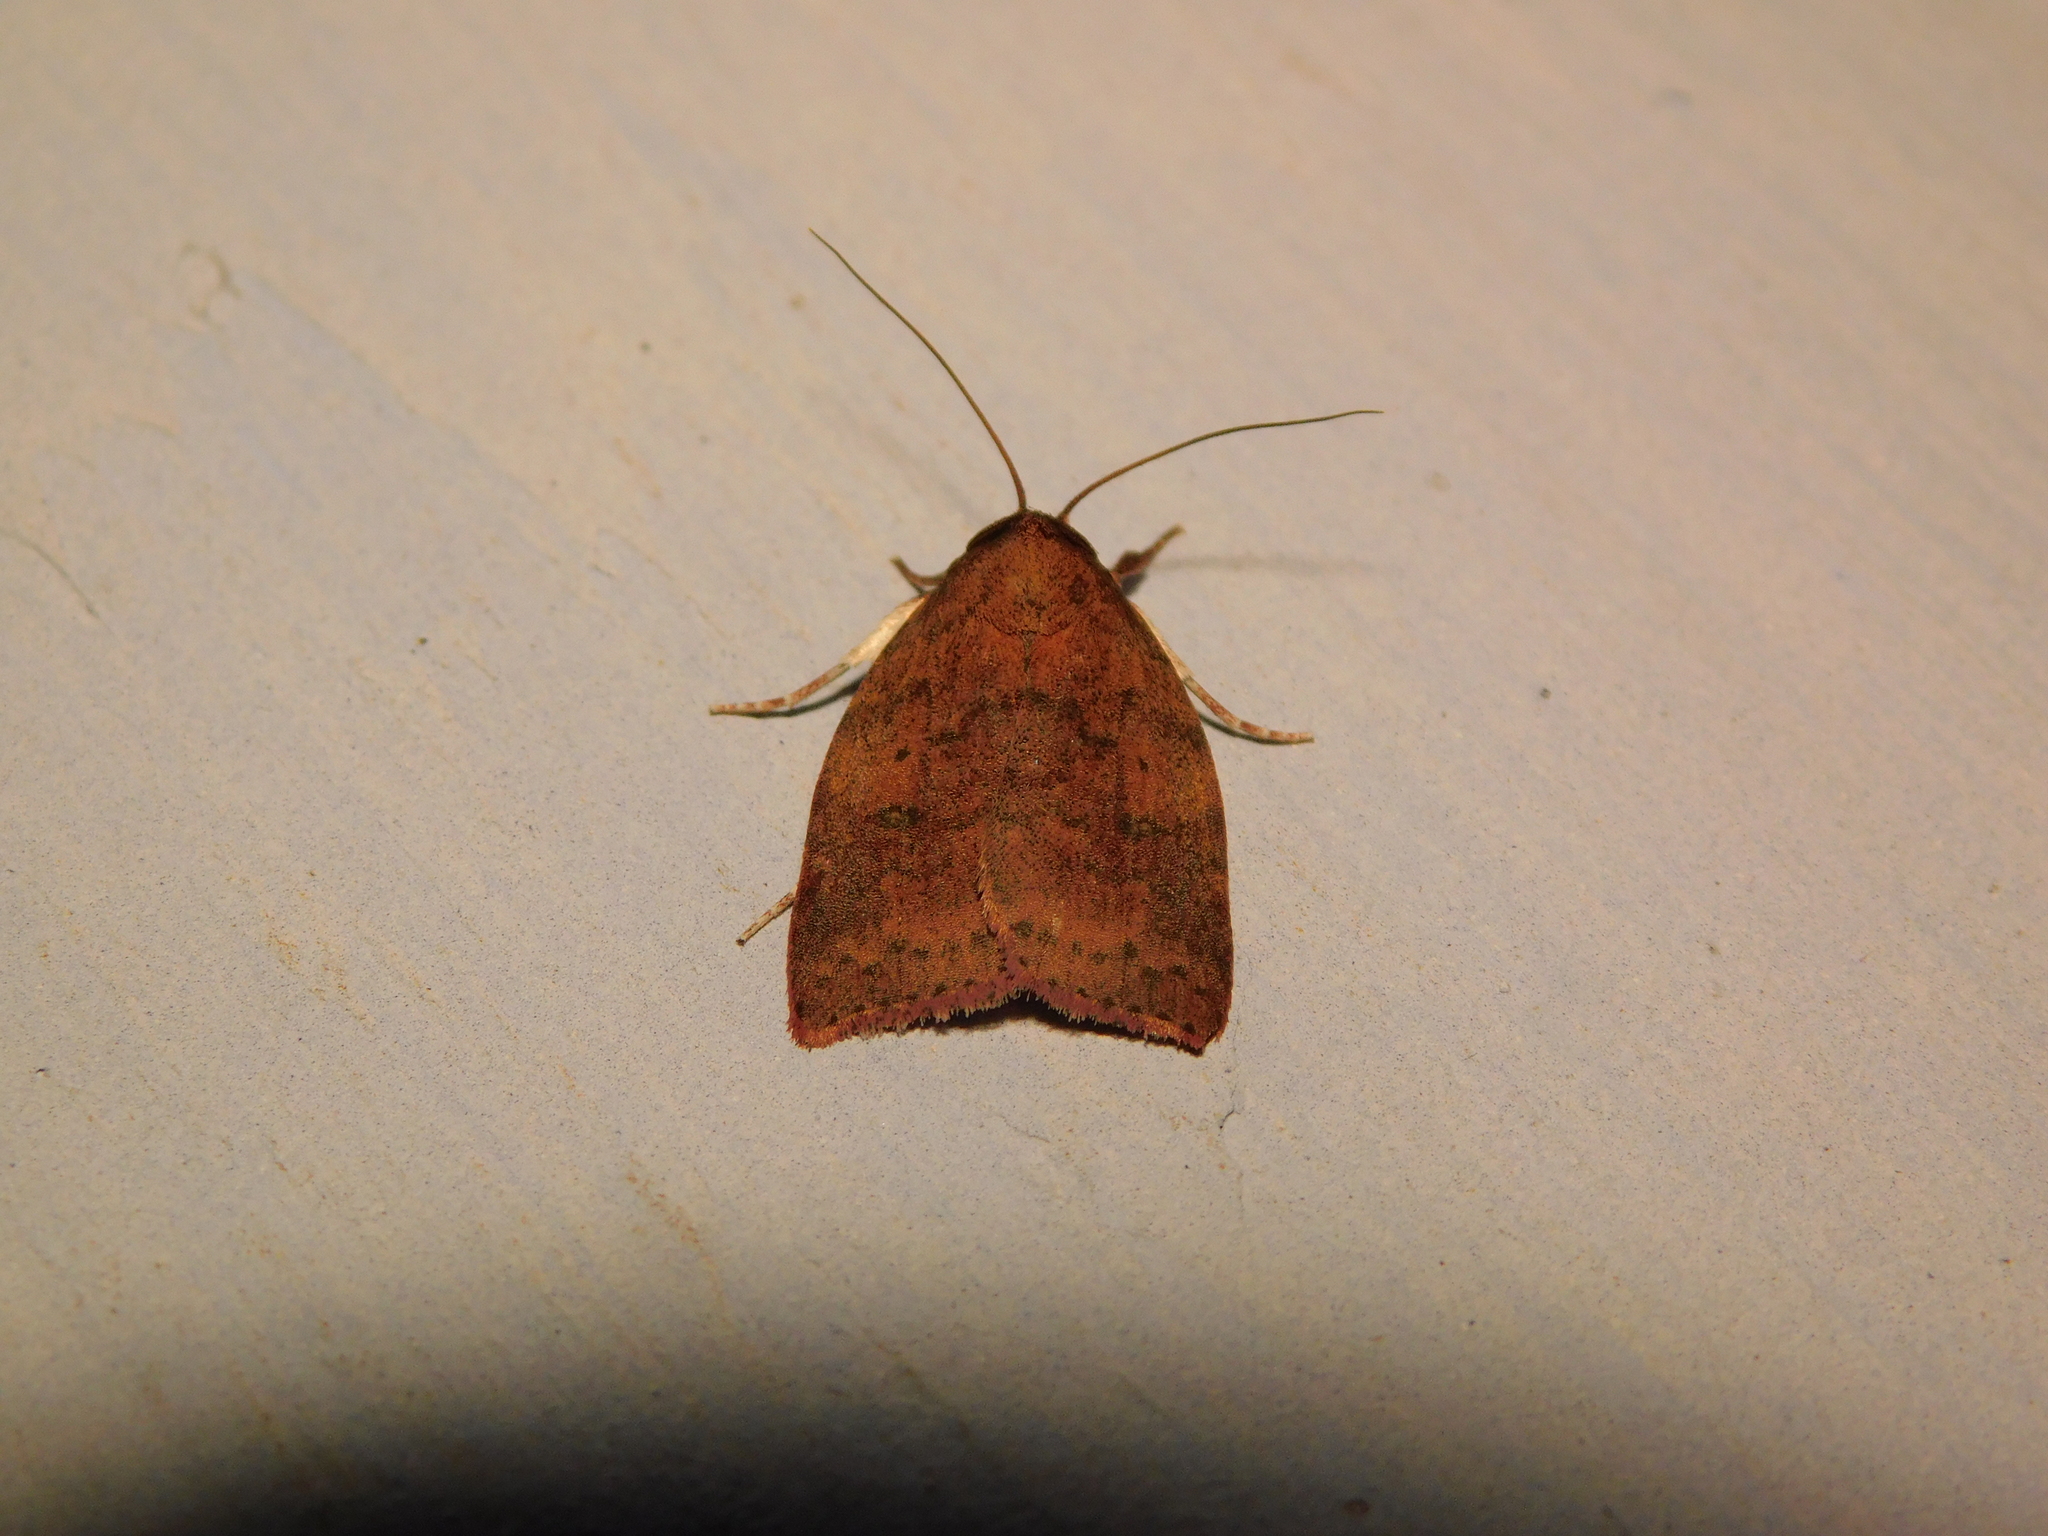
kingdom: Animalia
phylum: Arthropoda
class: Insecta
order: Lepidoptera
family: Nolidae
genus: Beara
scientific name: Beara dichromella
